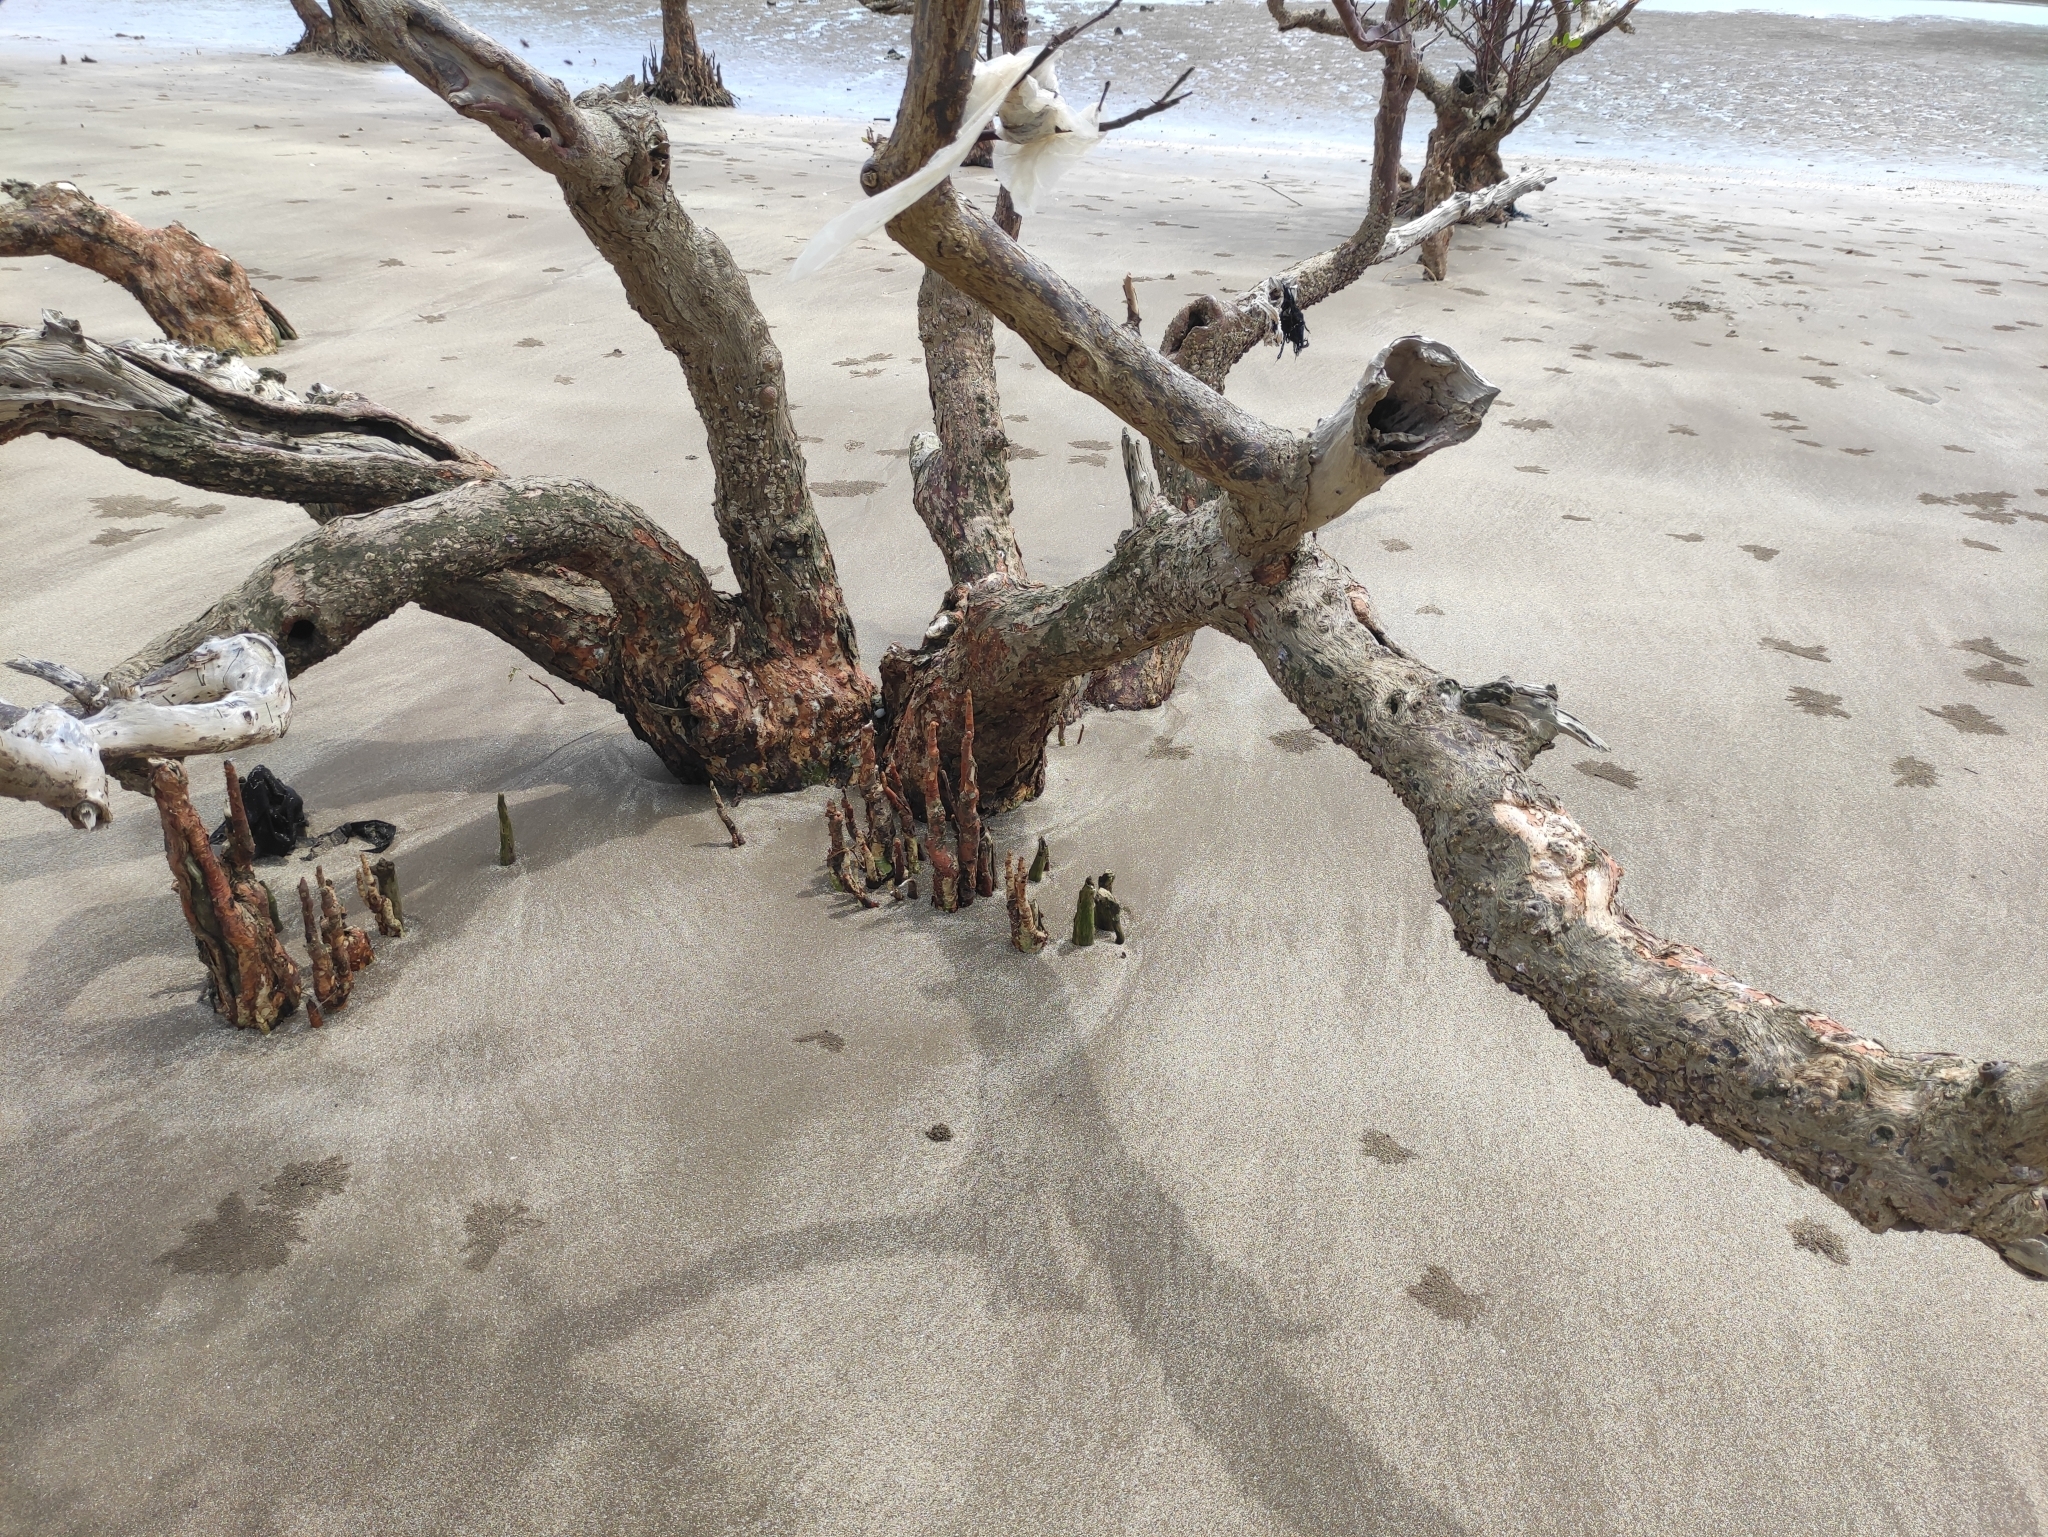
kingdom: Plantae
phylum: Tracheophyta
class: Magnoliopsida
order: Myrtales
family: Lythraceae
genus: Sonneratia
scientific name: Sonneratia alba
